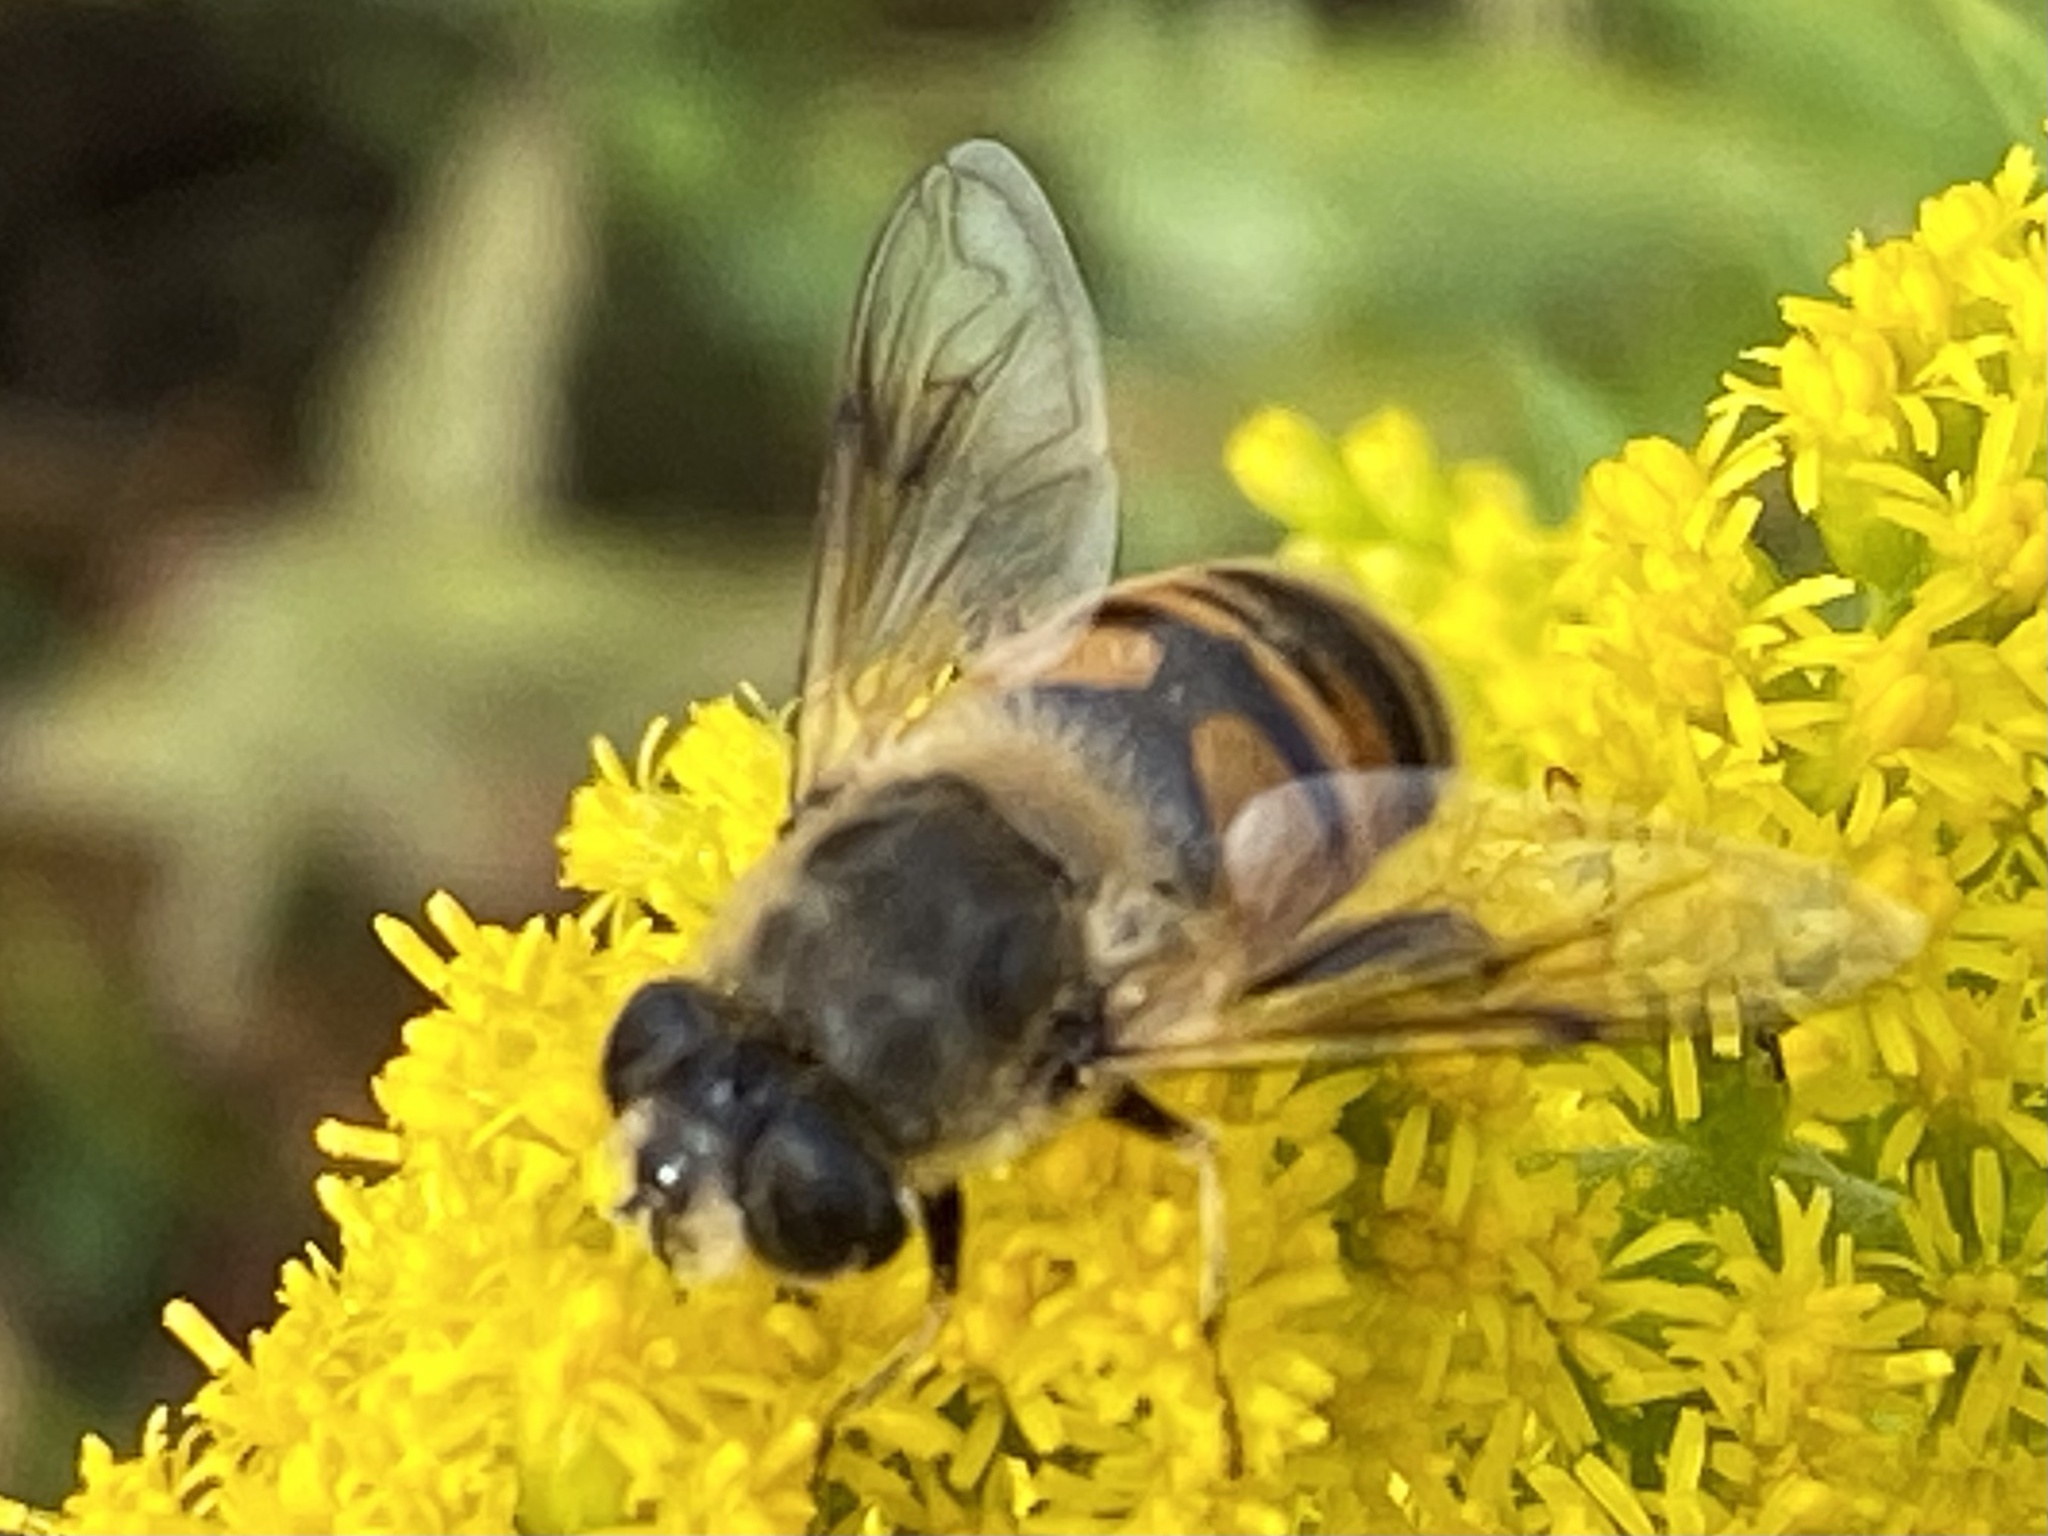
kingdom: Animalia
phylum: Arthropoda
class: Insecta
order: Diptera
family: Syrphidae
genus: Eristalis
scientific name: Eristalis tenax
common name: Drone fly
